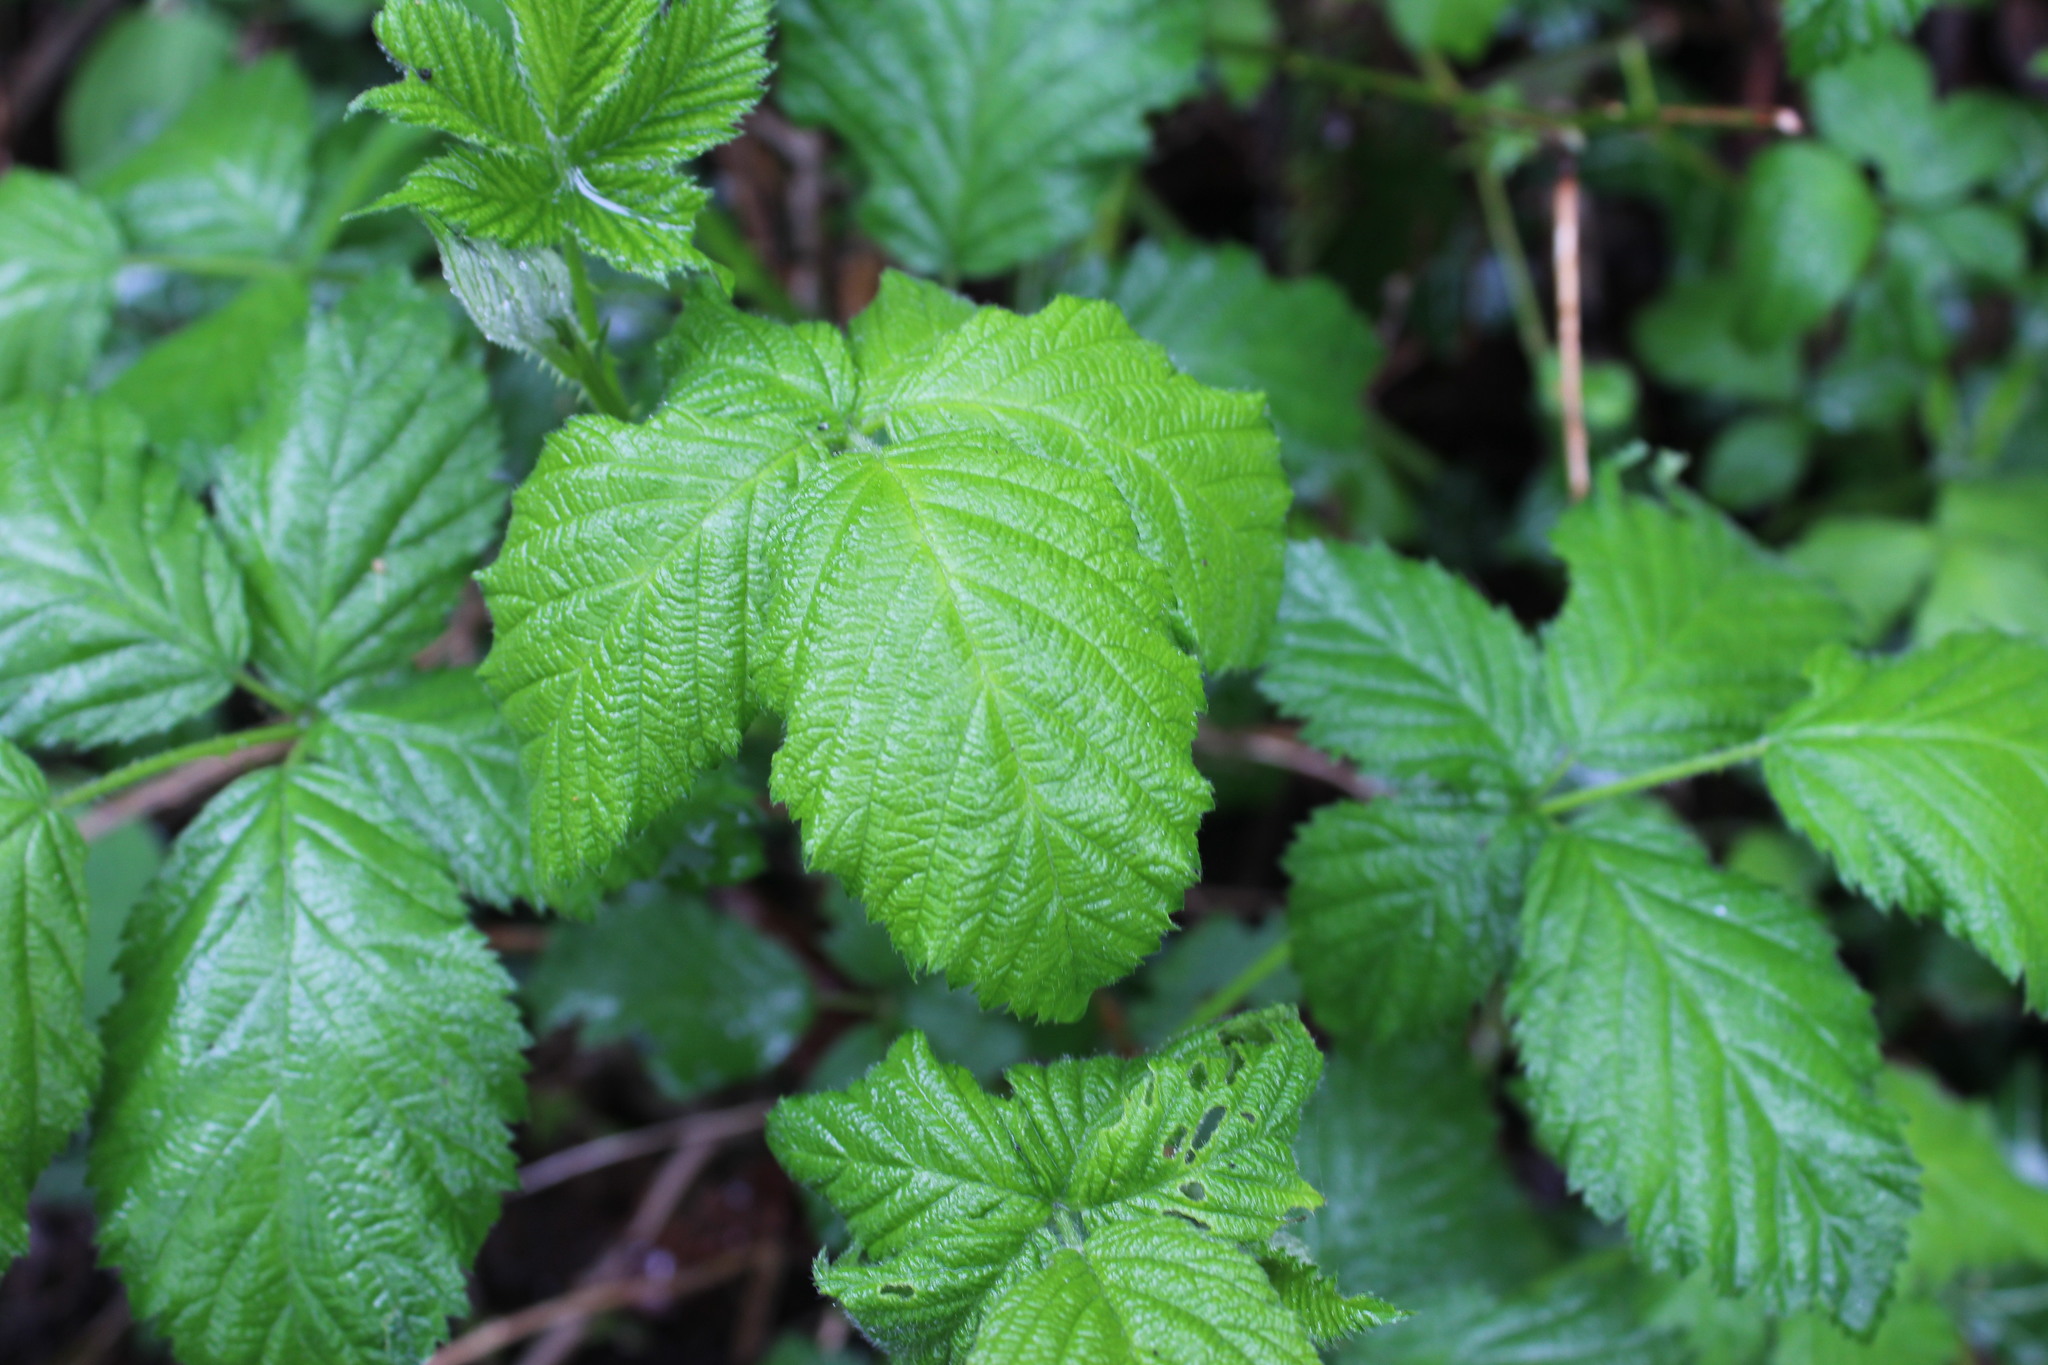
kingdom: Plantae
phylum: Tracheophyta
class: Magnoliopsida
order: Rosales
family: Rosaceae
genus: Rubus
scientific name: Rubus armeniacus
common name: Himalayan blackberry
